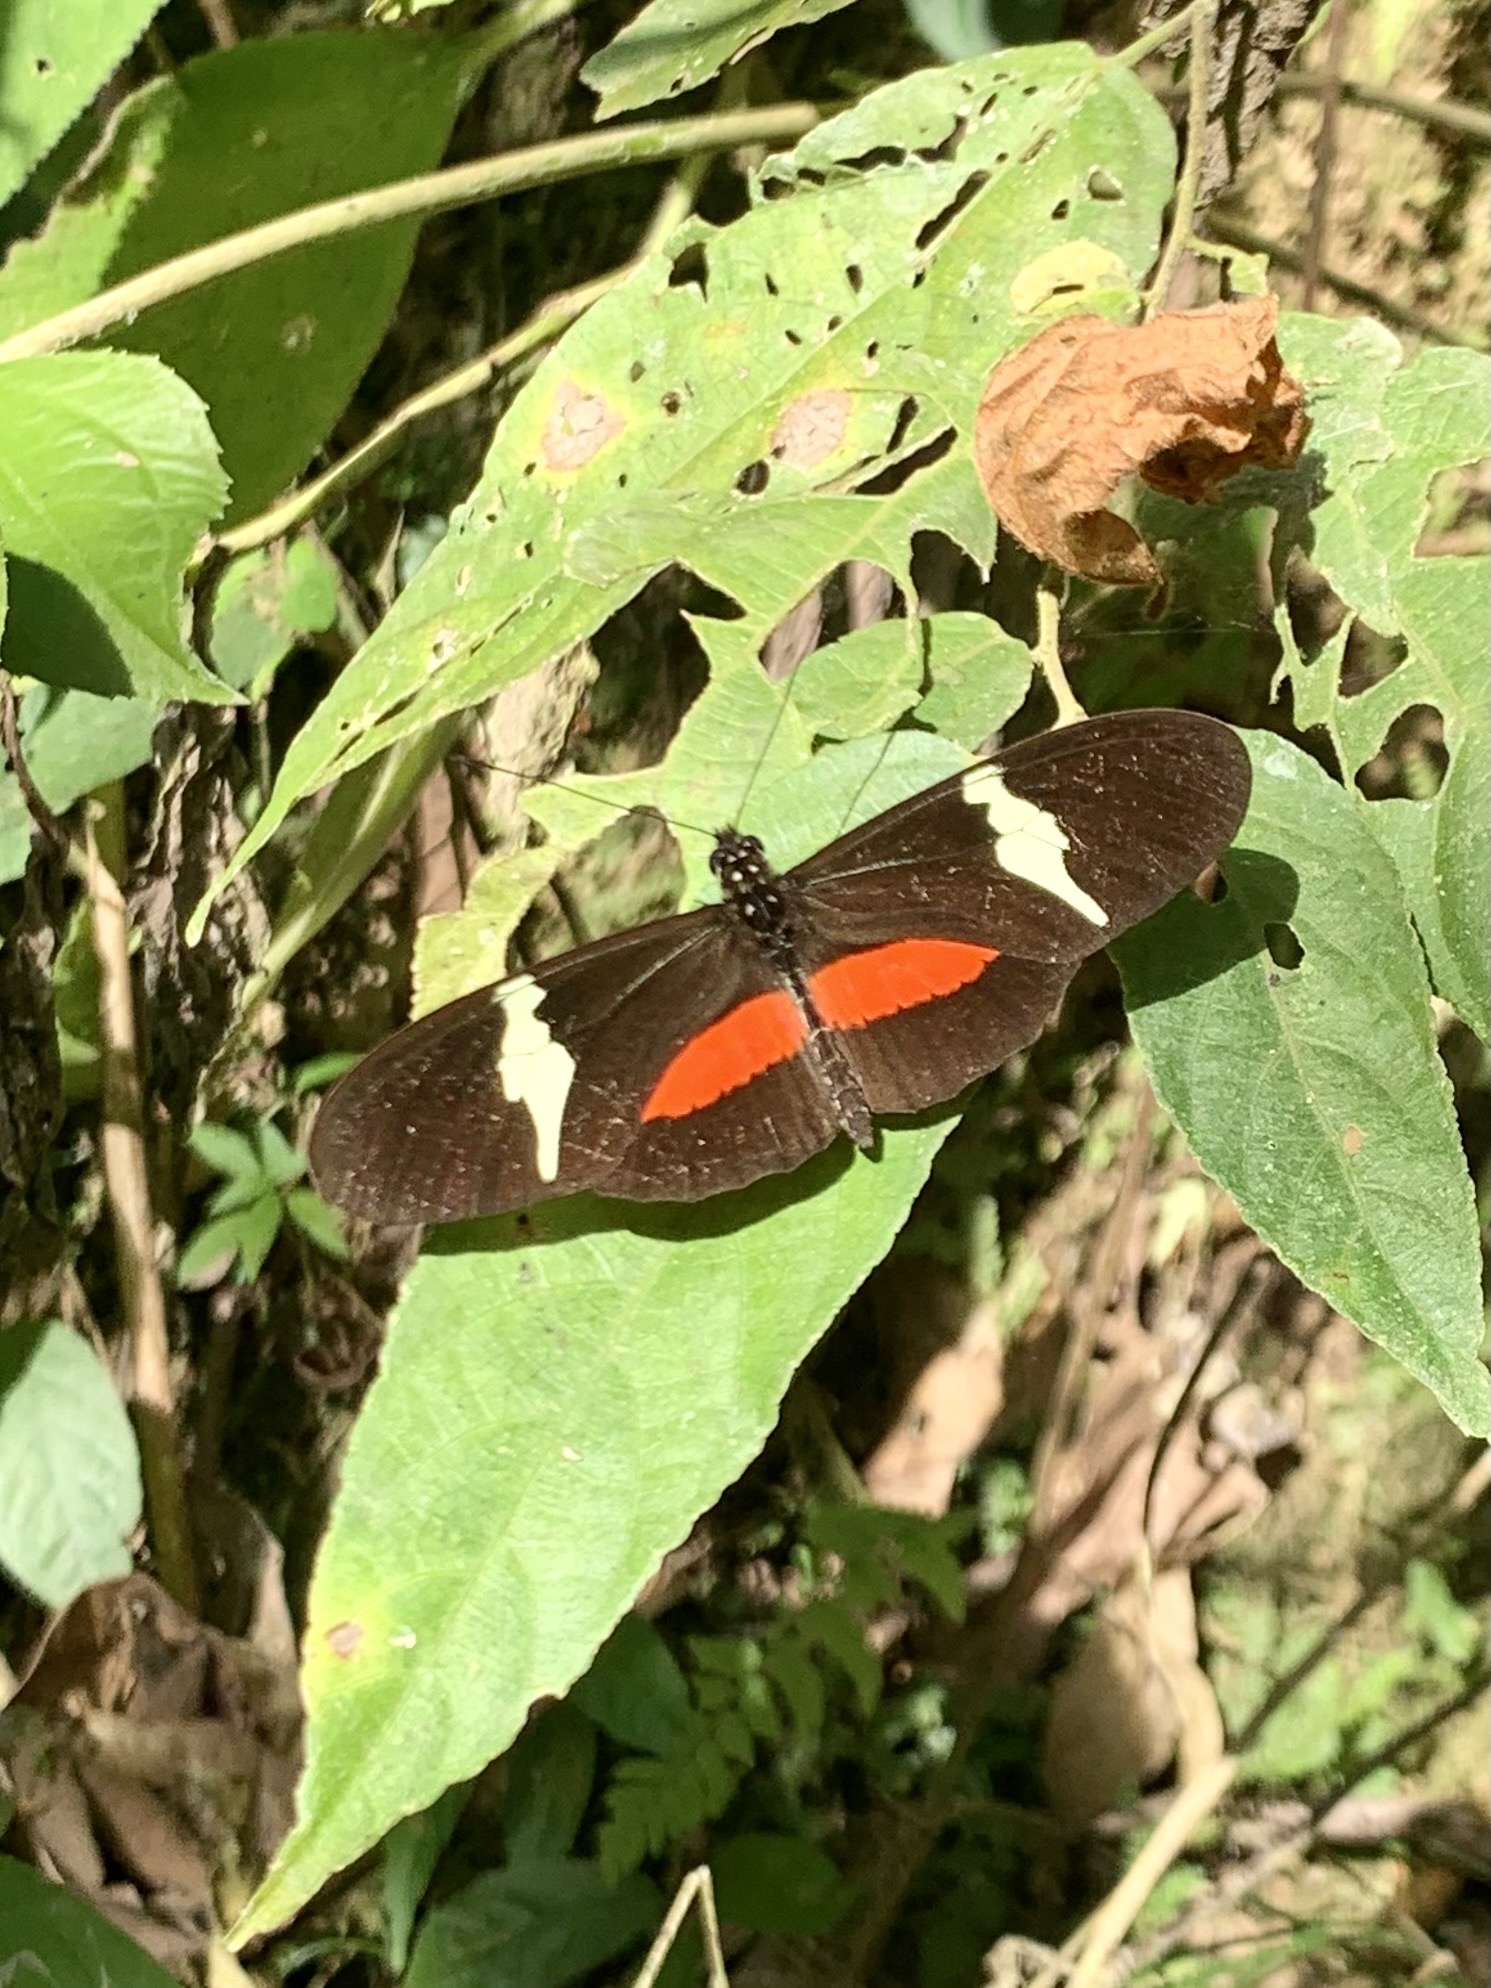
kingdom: Animalia
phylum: Arthropoda
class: Insecta
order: Lepidoptera
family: Nymphalidae
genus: Heliconius
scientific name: Heliconius clysonymus
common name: Clysonymus longwing
